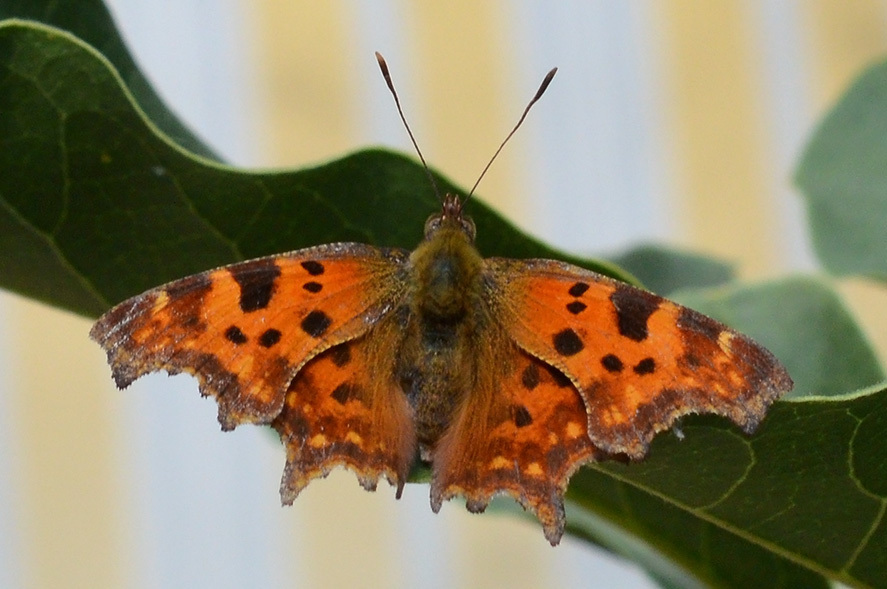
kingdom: Animalia
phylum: Arthropoda
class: Insecta
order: Lepidoptera
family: Nymphalidae
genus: Polygonia
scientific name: Polygonia c-album
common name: Comma
